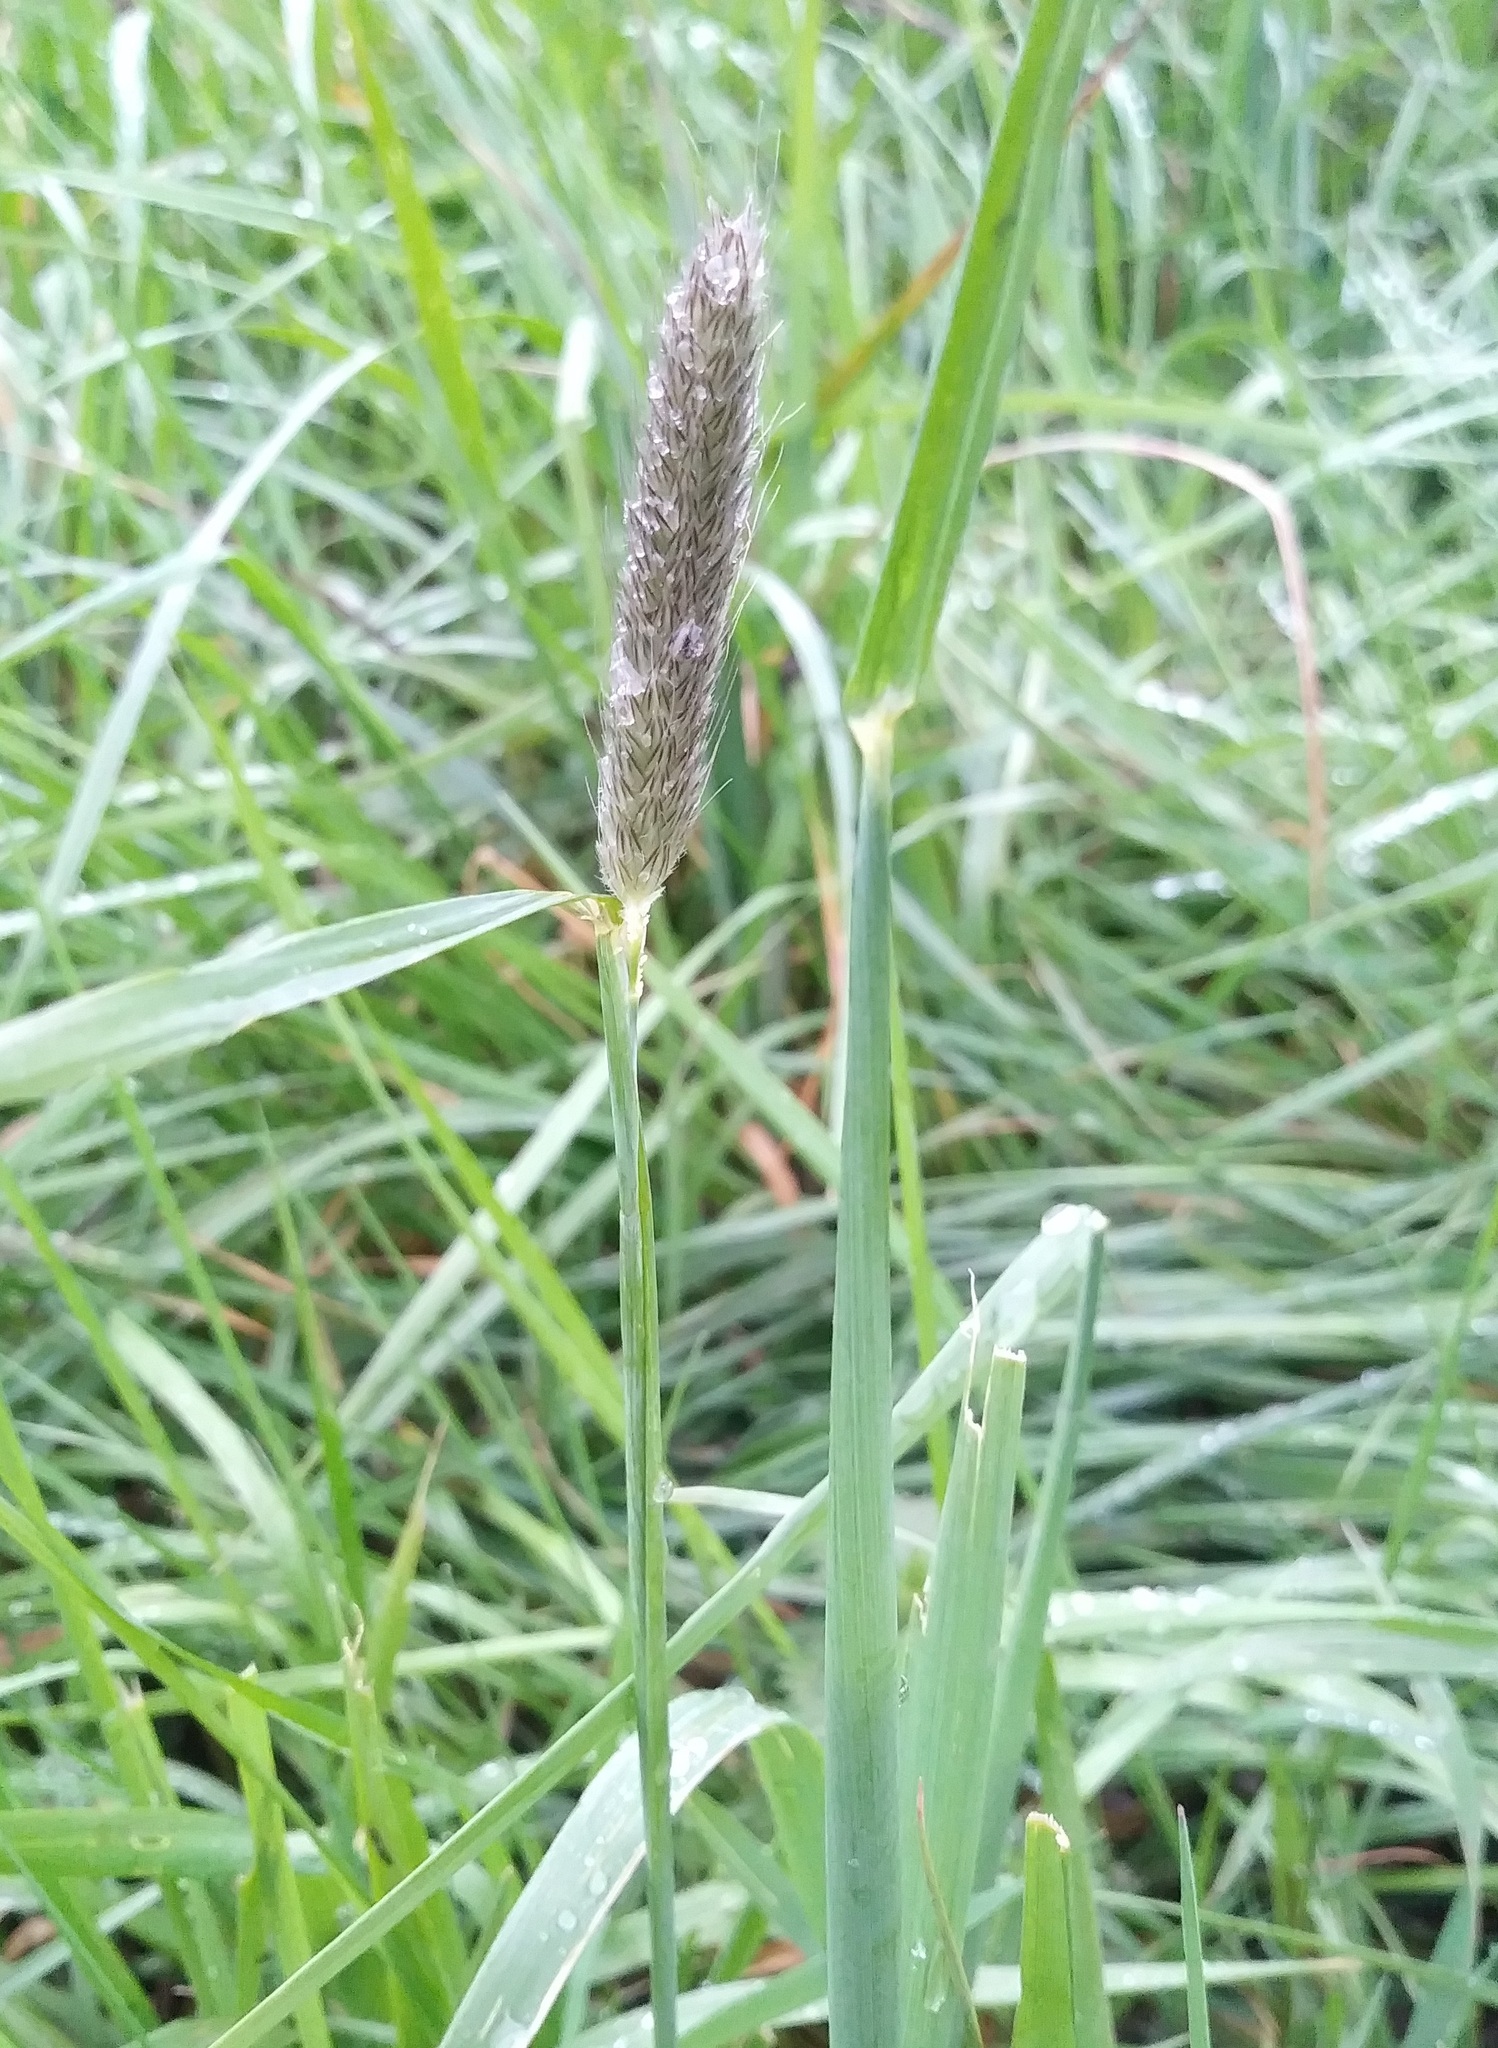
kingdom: Plantae
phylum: Tracheophyta
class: Liliopsida
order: Poales
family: Poaceae
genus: Alopecurus
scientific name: Alopecurus pratensis
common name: Meadow foxtail
